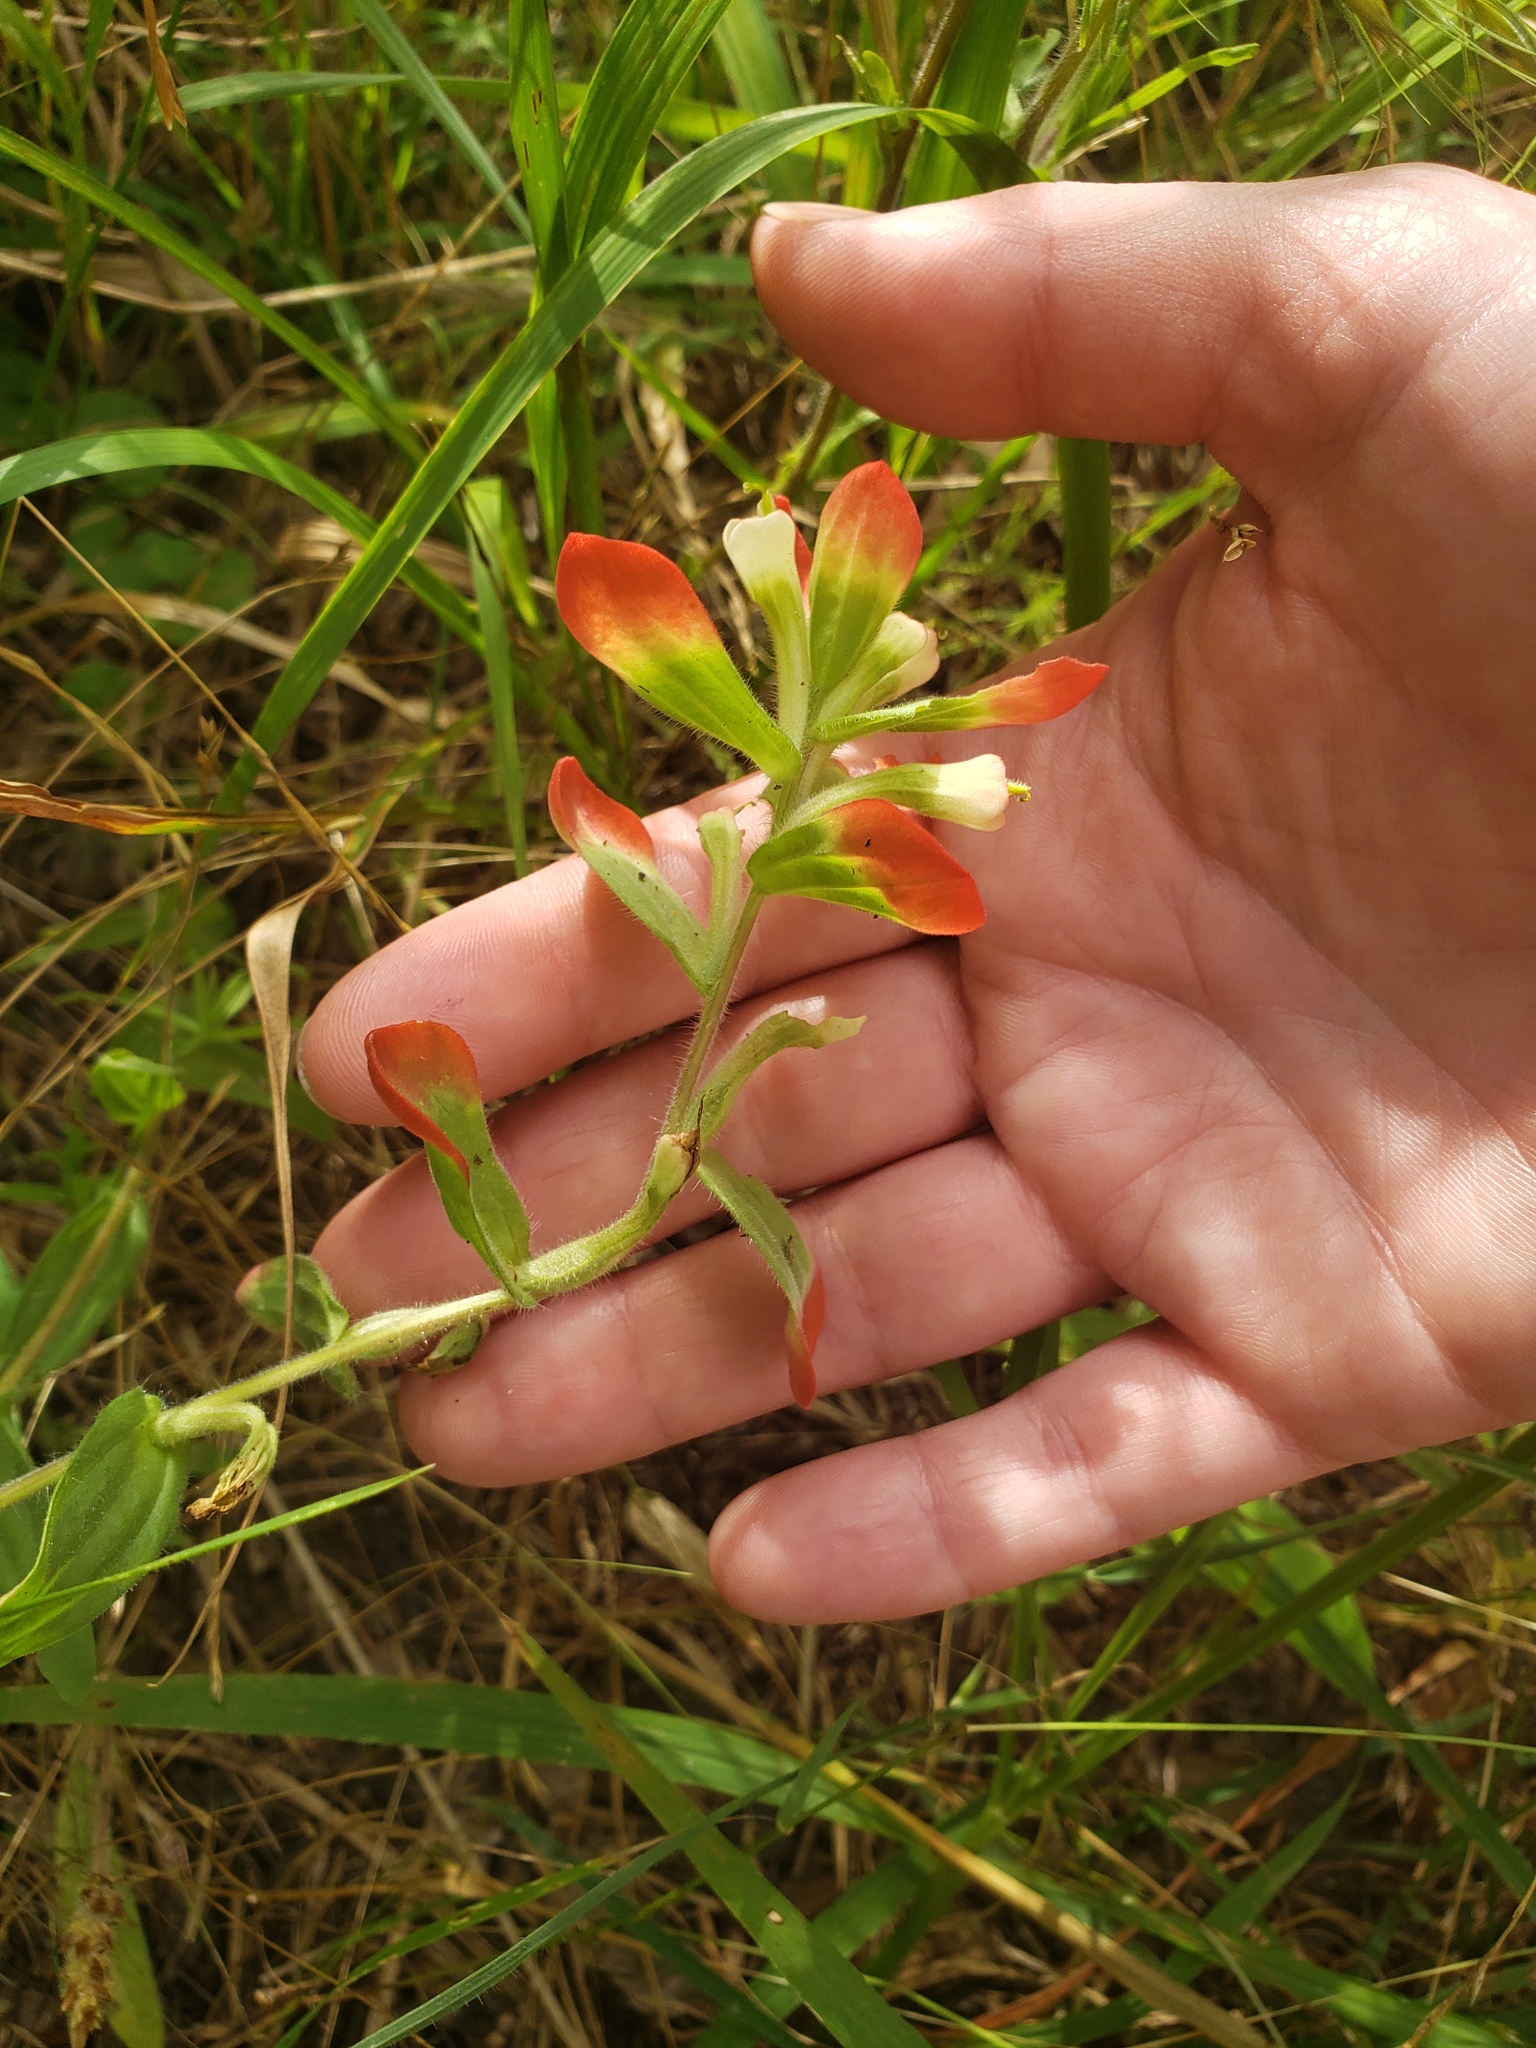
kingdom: Plantae
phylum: Tracheophyta
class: Magnoliopsida
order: Lamiales
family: Orobanchaceae
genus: Castilleja
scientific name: Castilleja indivisa
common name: Texas paintbrush
